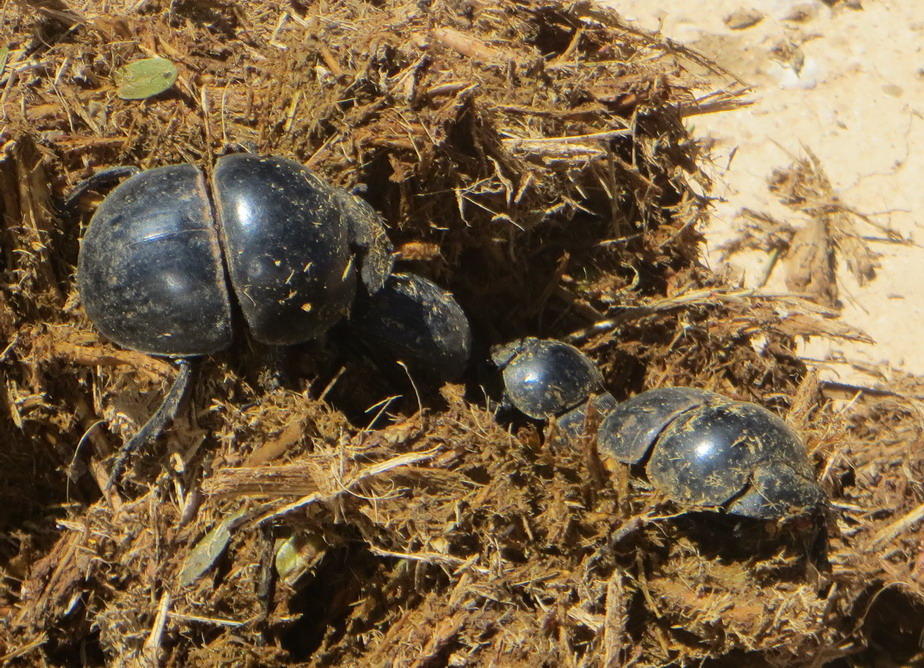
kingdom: Animalia
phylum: Arthropoda
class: Insecta
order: Coleoptera
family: Scarabaeidae
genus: Circellium
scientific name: Circellium bacchus
